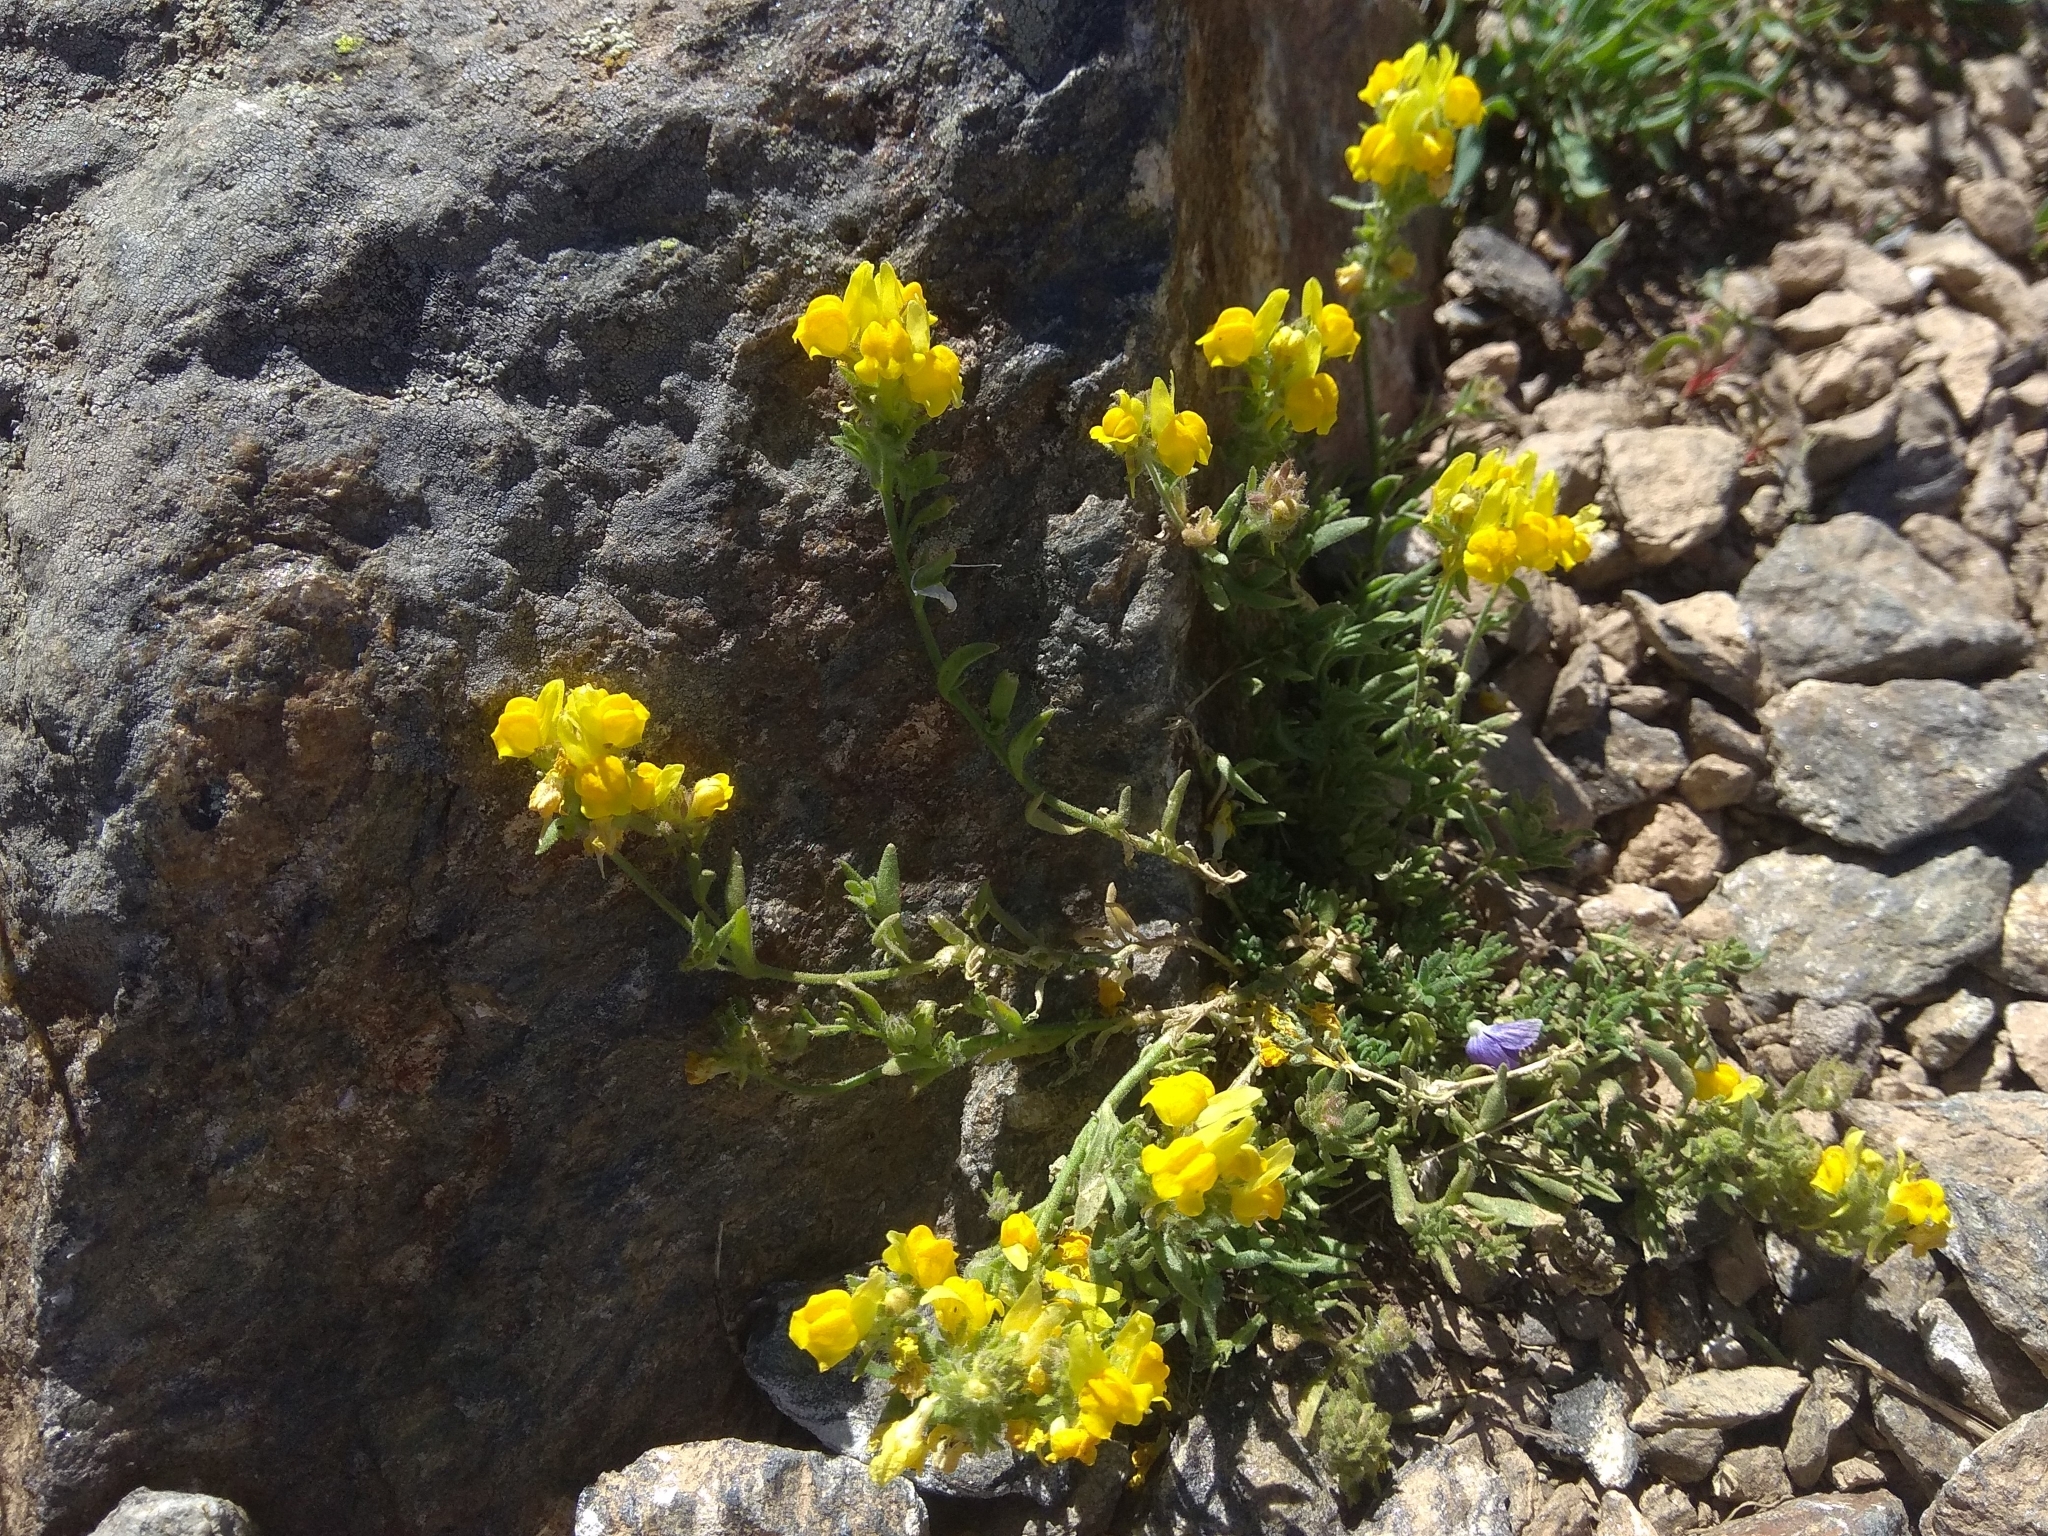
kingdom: Plantae
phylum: Tracheophyta
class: Magnoliopsida
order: Lamiales
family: Plantaginaceae
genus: Linaria
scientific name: Linaria saxatilis
